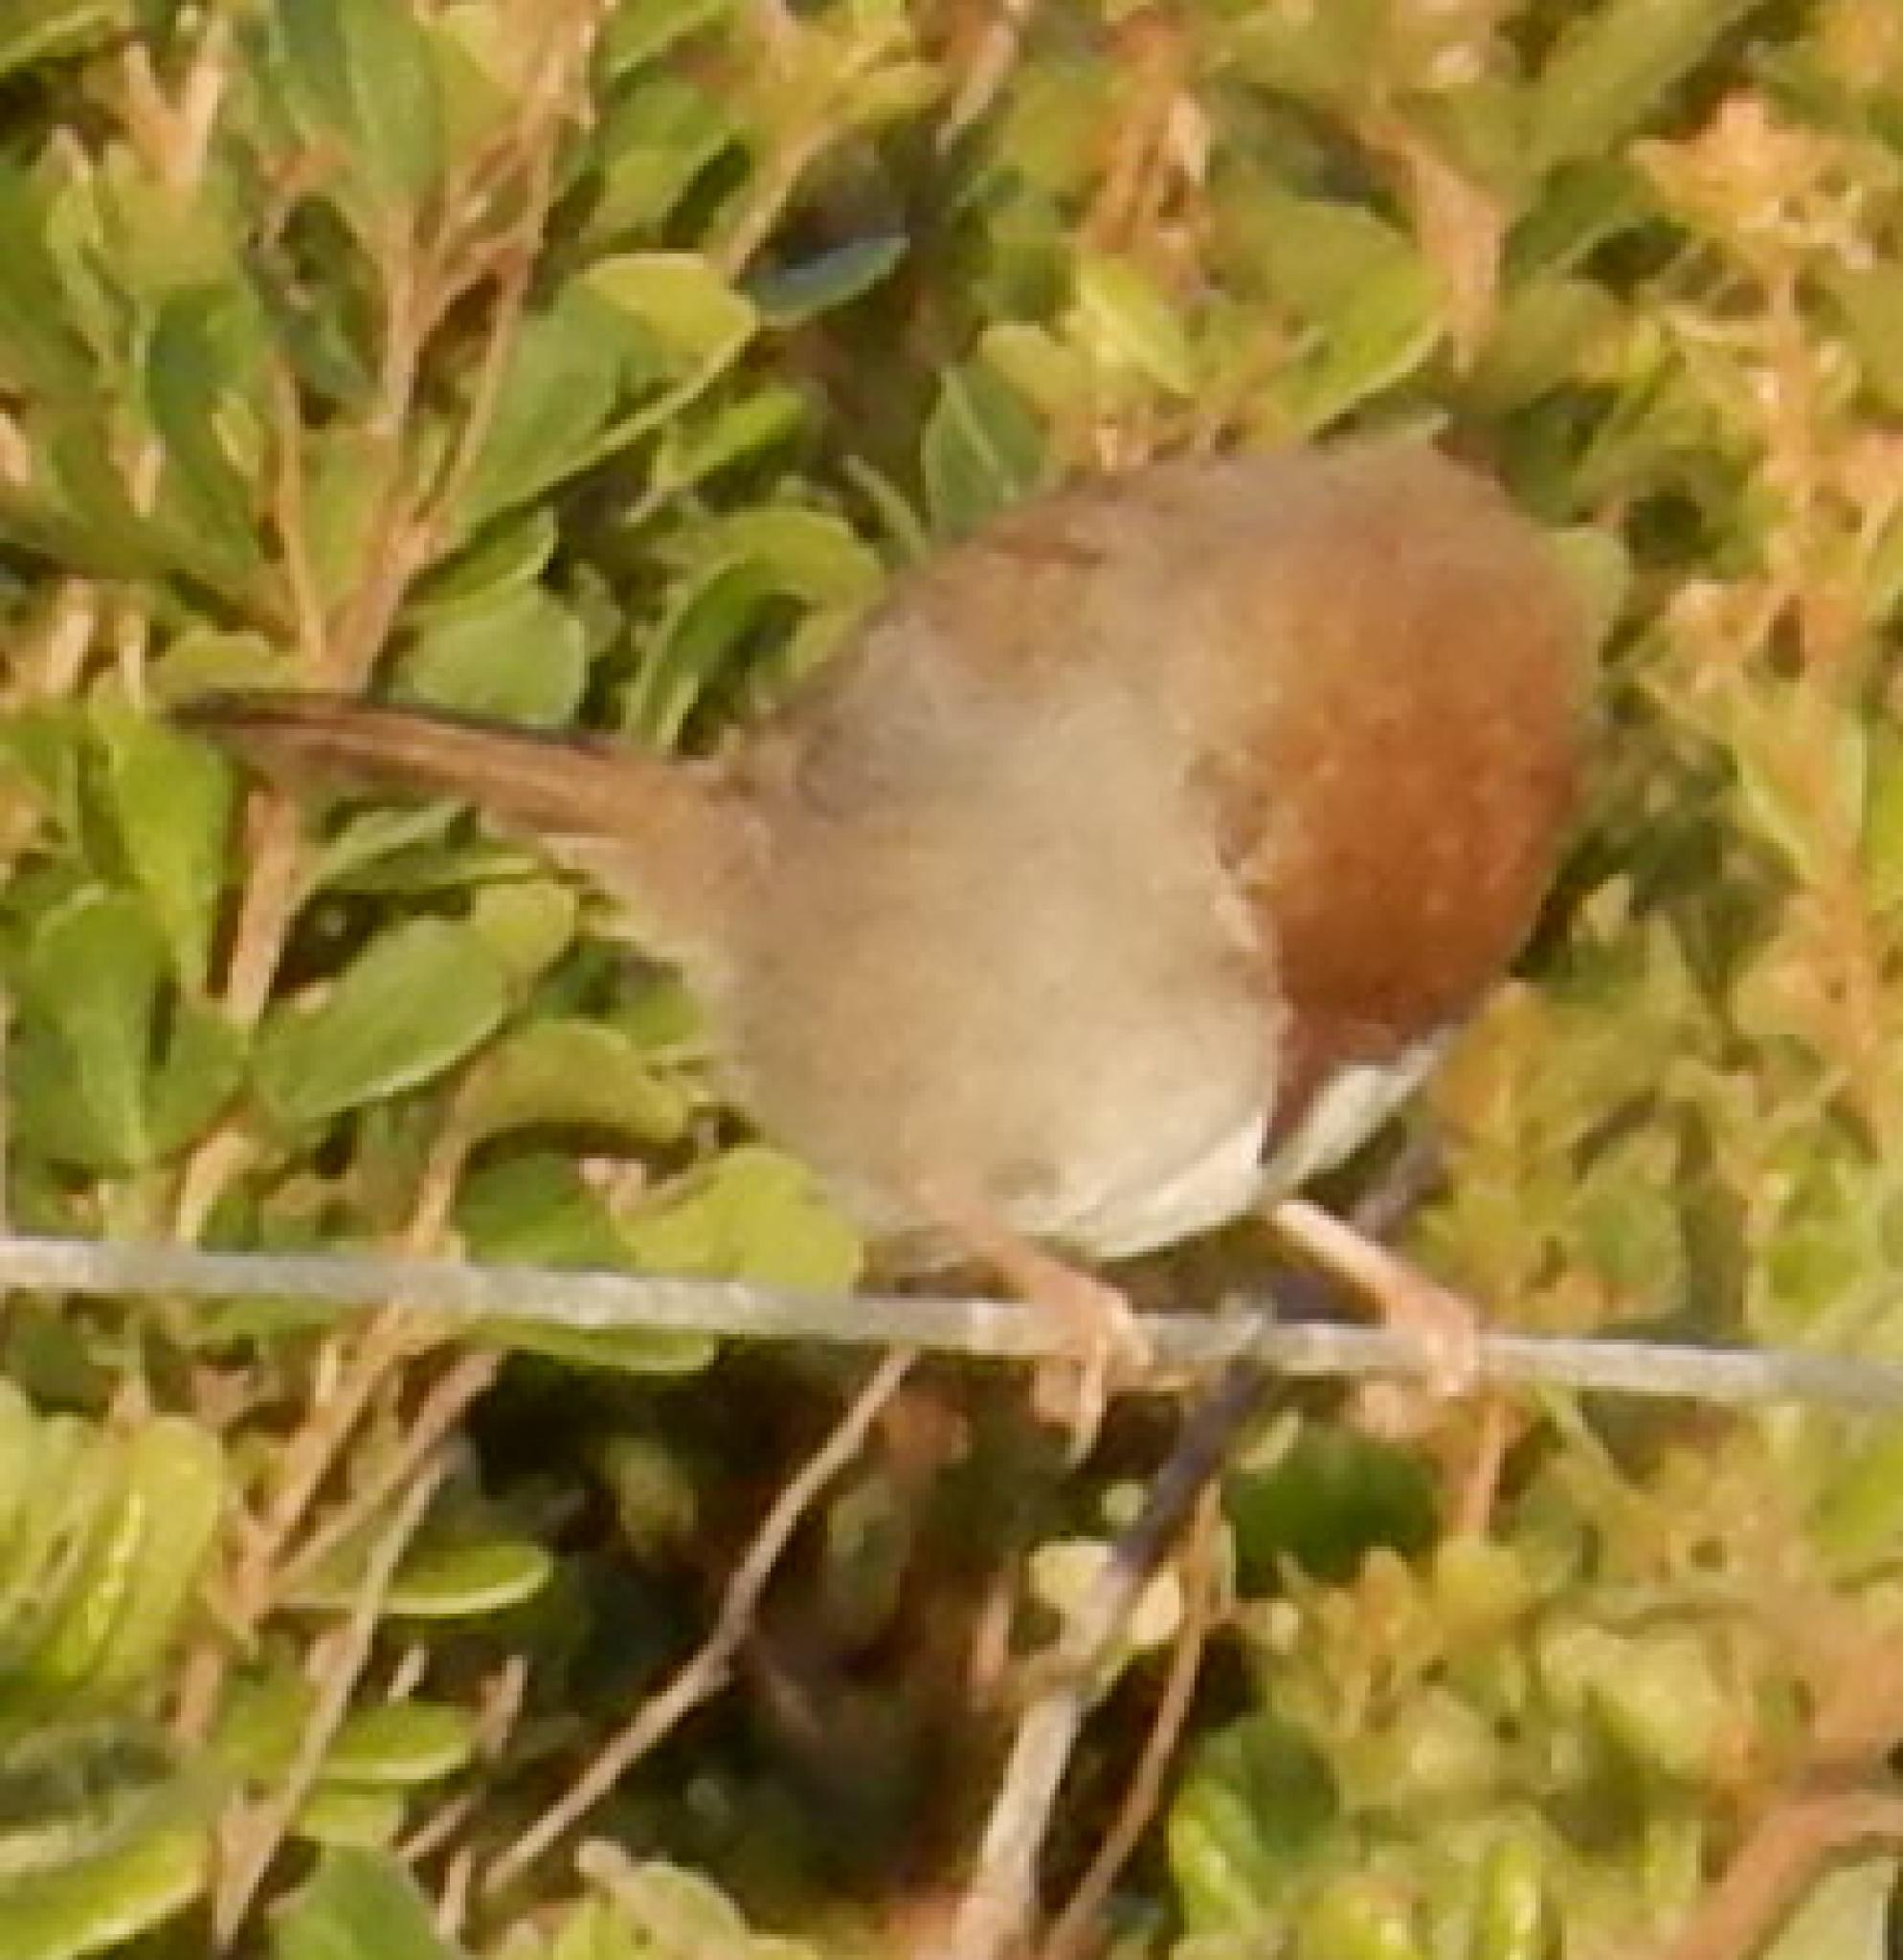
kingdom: Animalia
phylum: Chordata
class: Aves
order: Passeriformes
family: Cisticolidae
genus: Cisticola
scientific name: Cisticola fulvicapilla
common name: Neddicky
